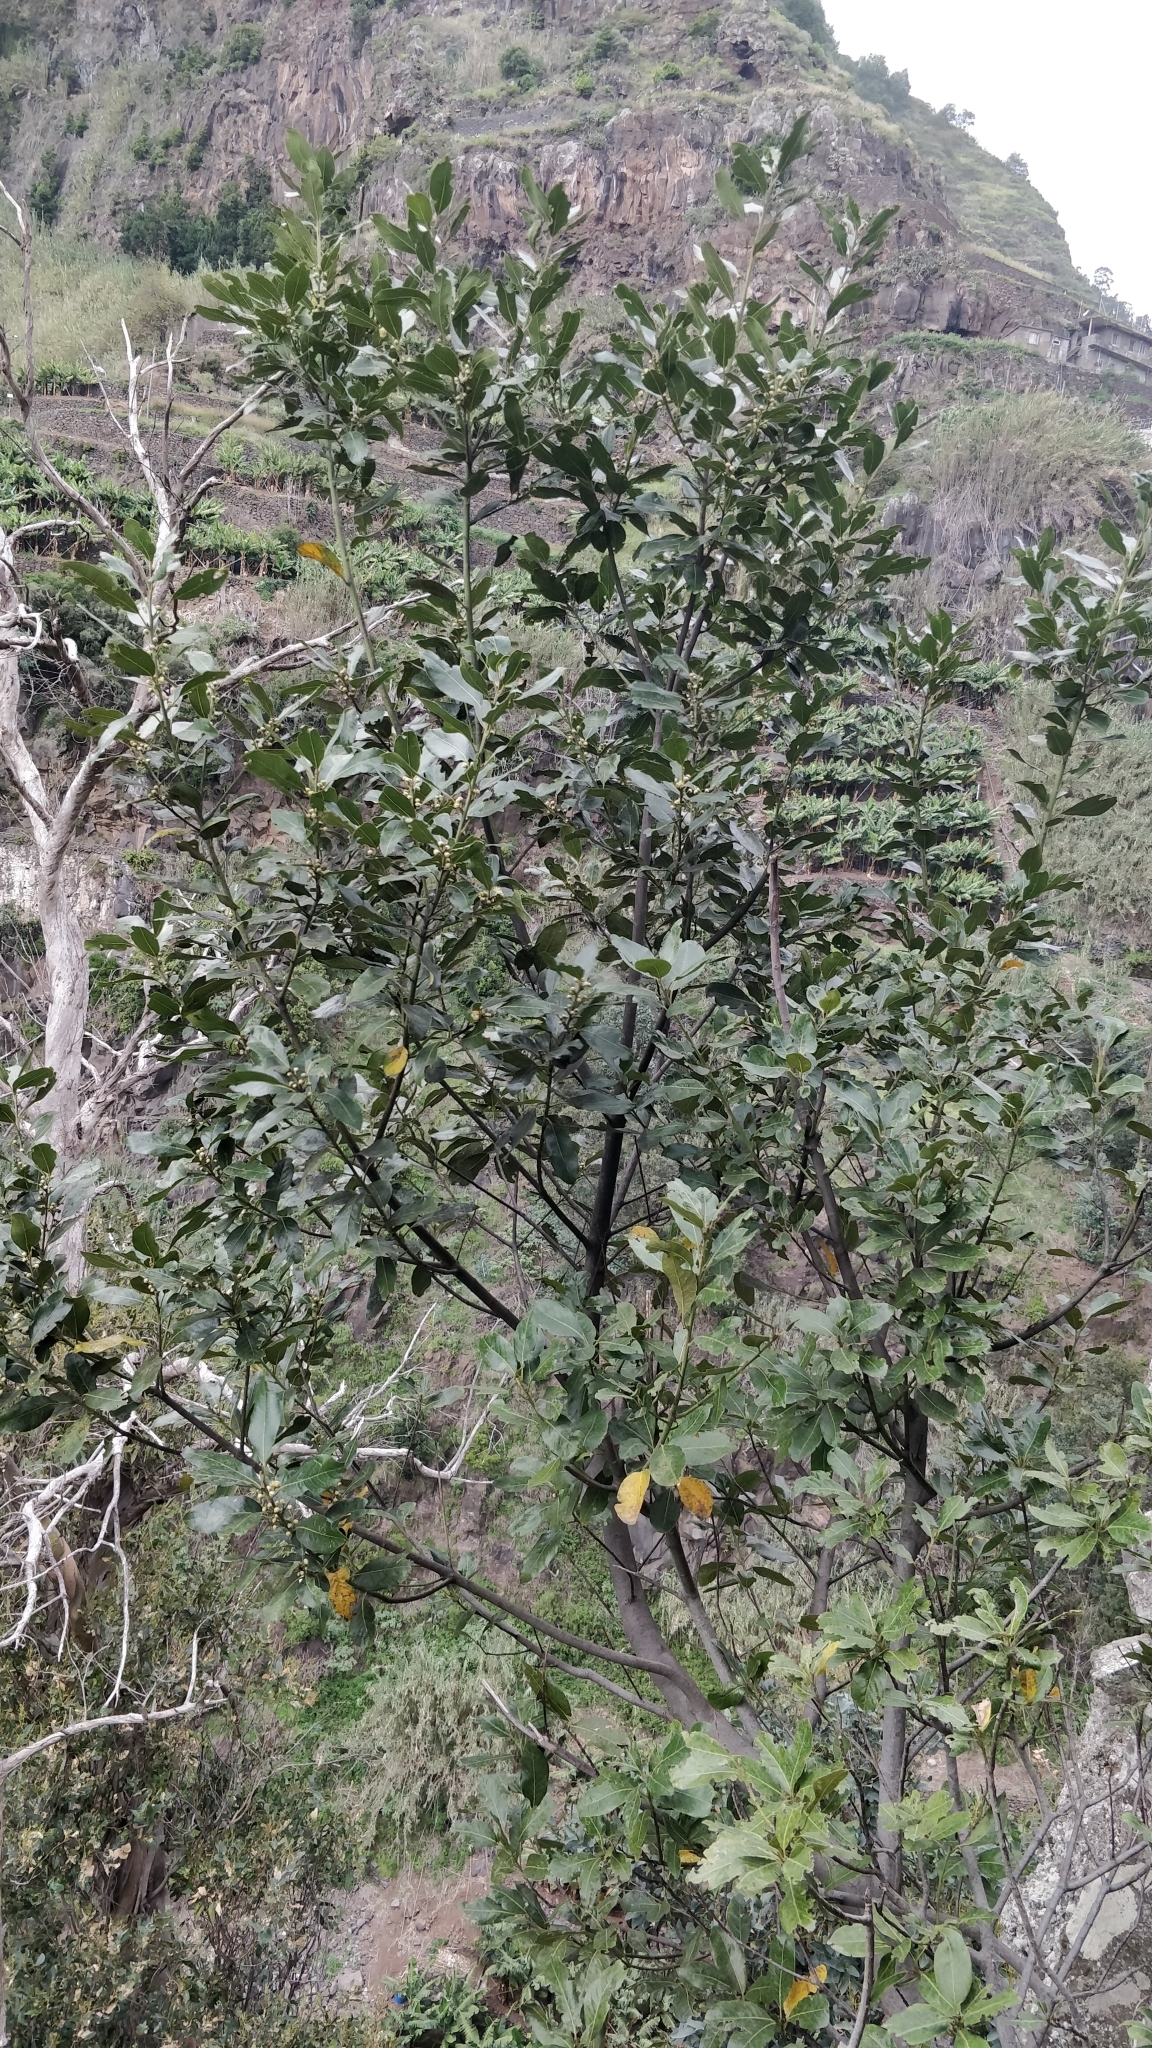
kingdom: Plantae
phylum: Tracheophyta
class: Magnoliopsida
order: Laurales
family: Lauraceae
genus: Laurus
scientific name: Laurus novocanariensis
